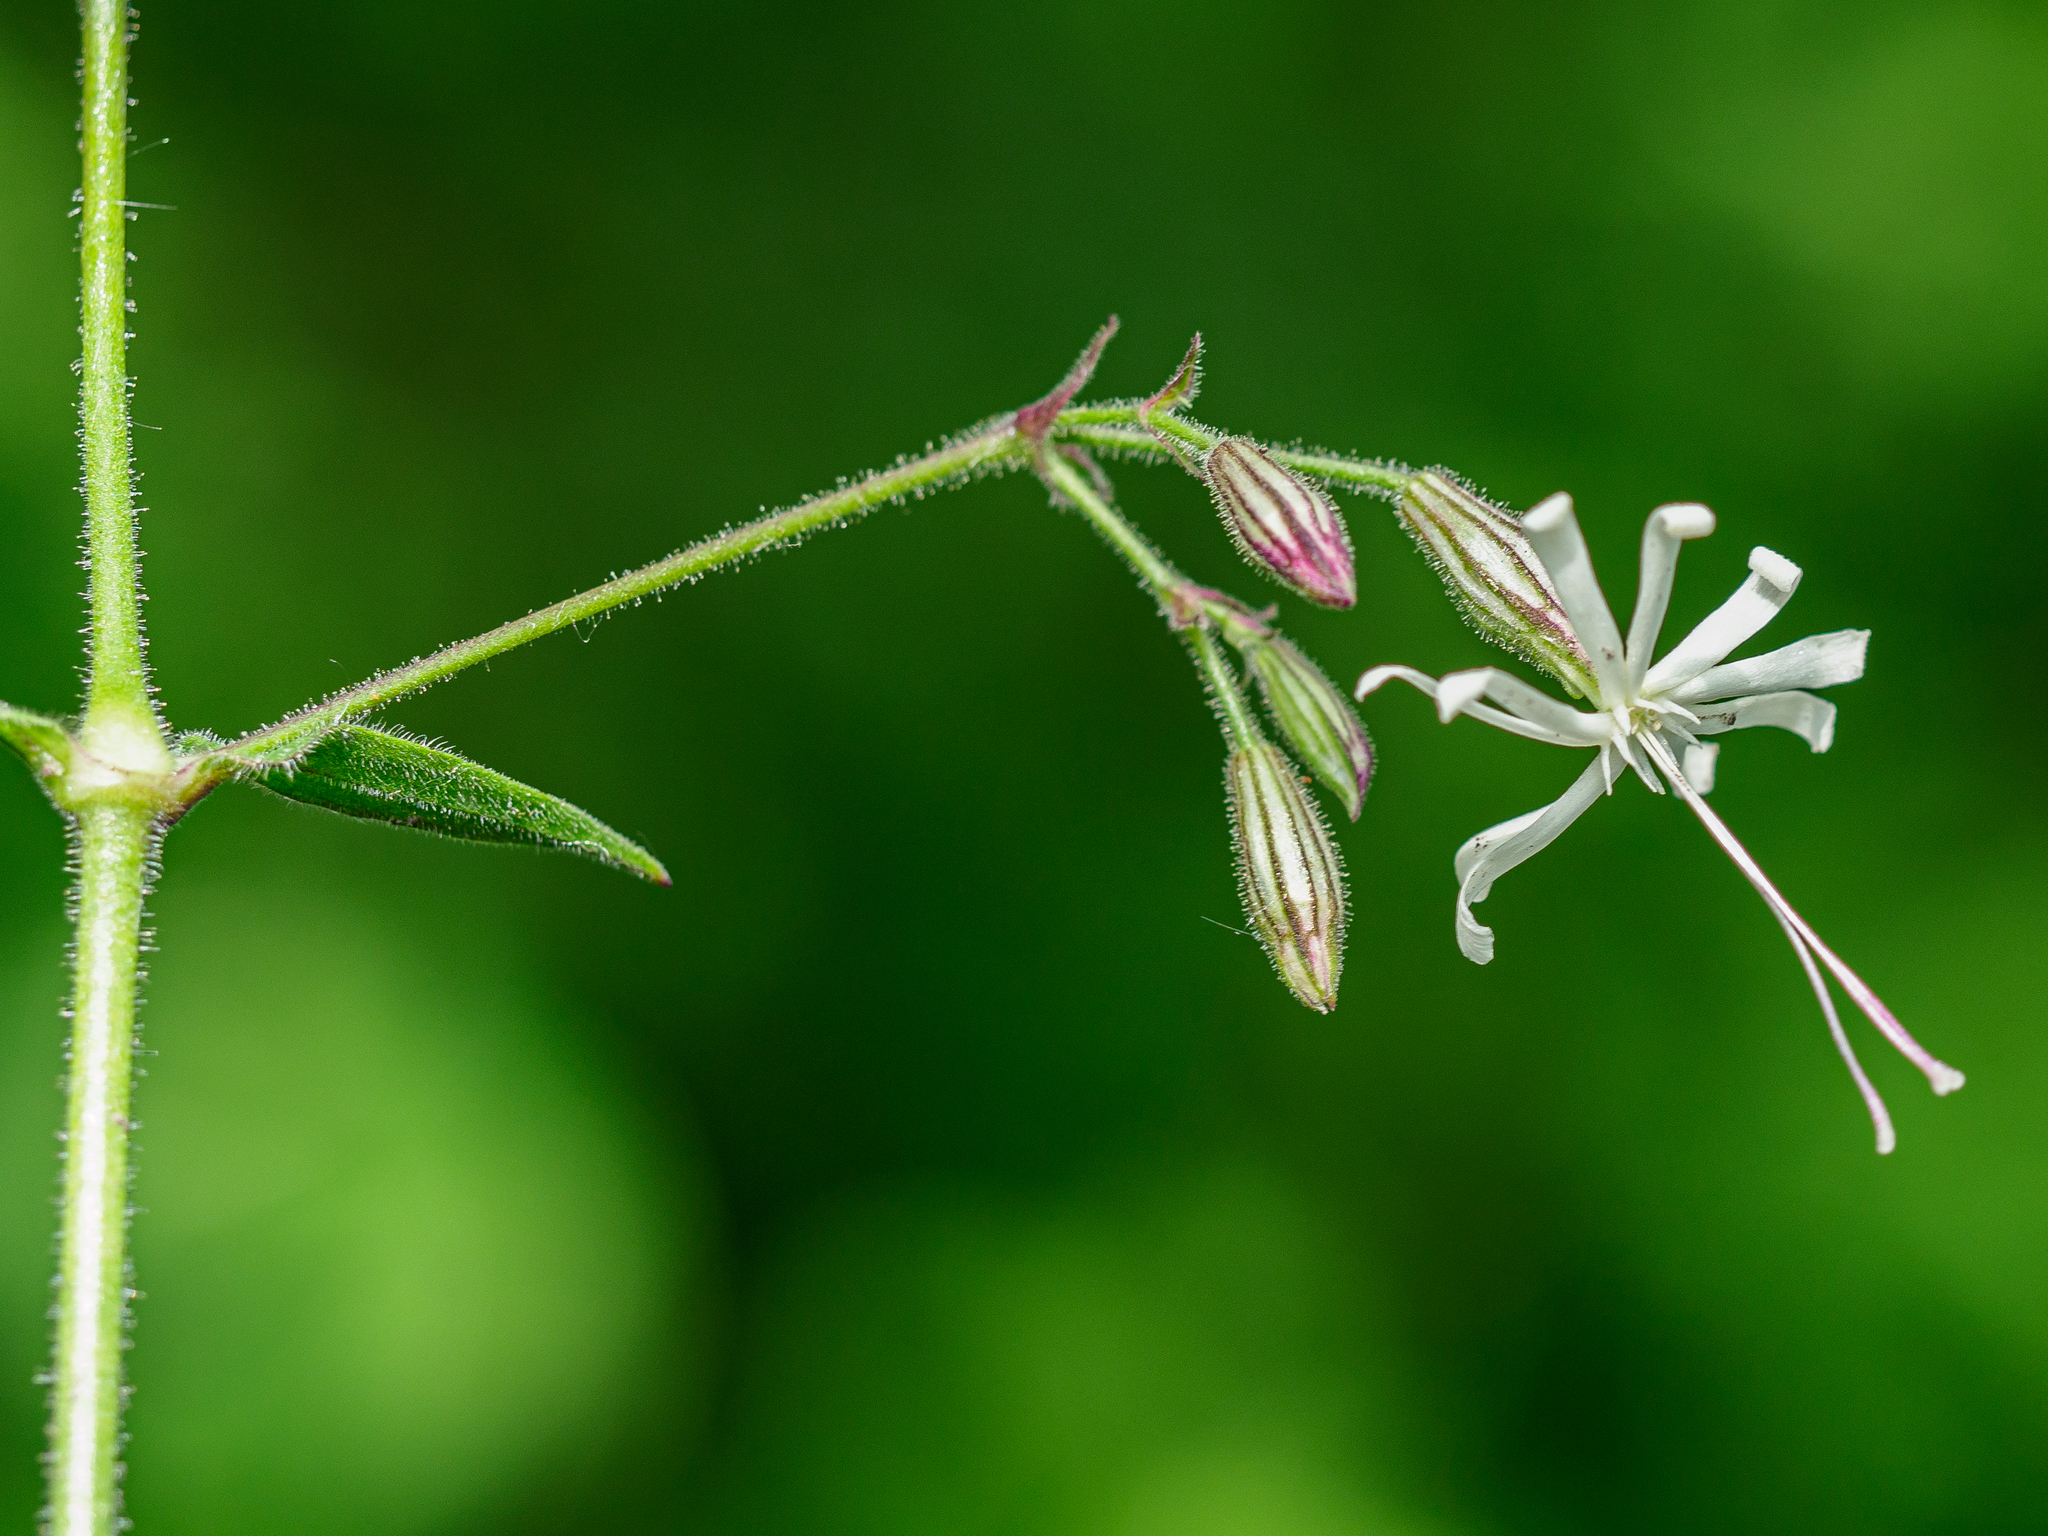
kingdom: Plantae
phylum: Tracheophyta
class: Magnoliopsida
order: Caryophyllales
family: Caryophyllaceae
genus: Silene
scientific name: Silene nutans
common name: Nottingham catchfly
